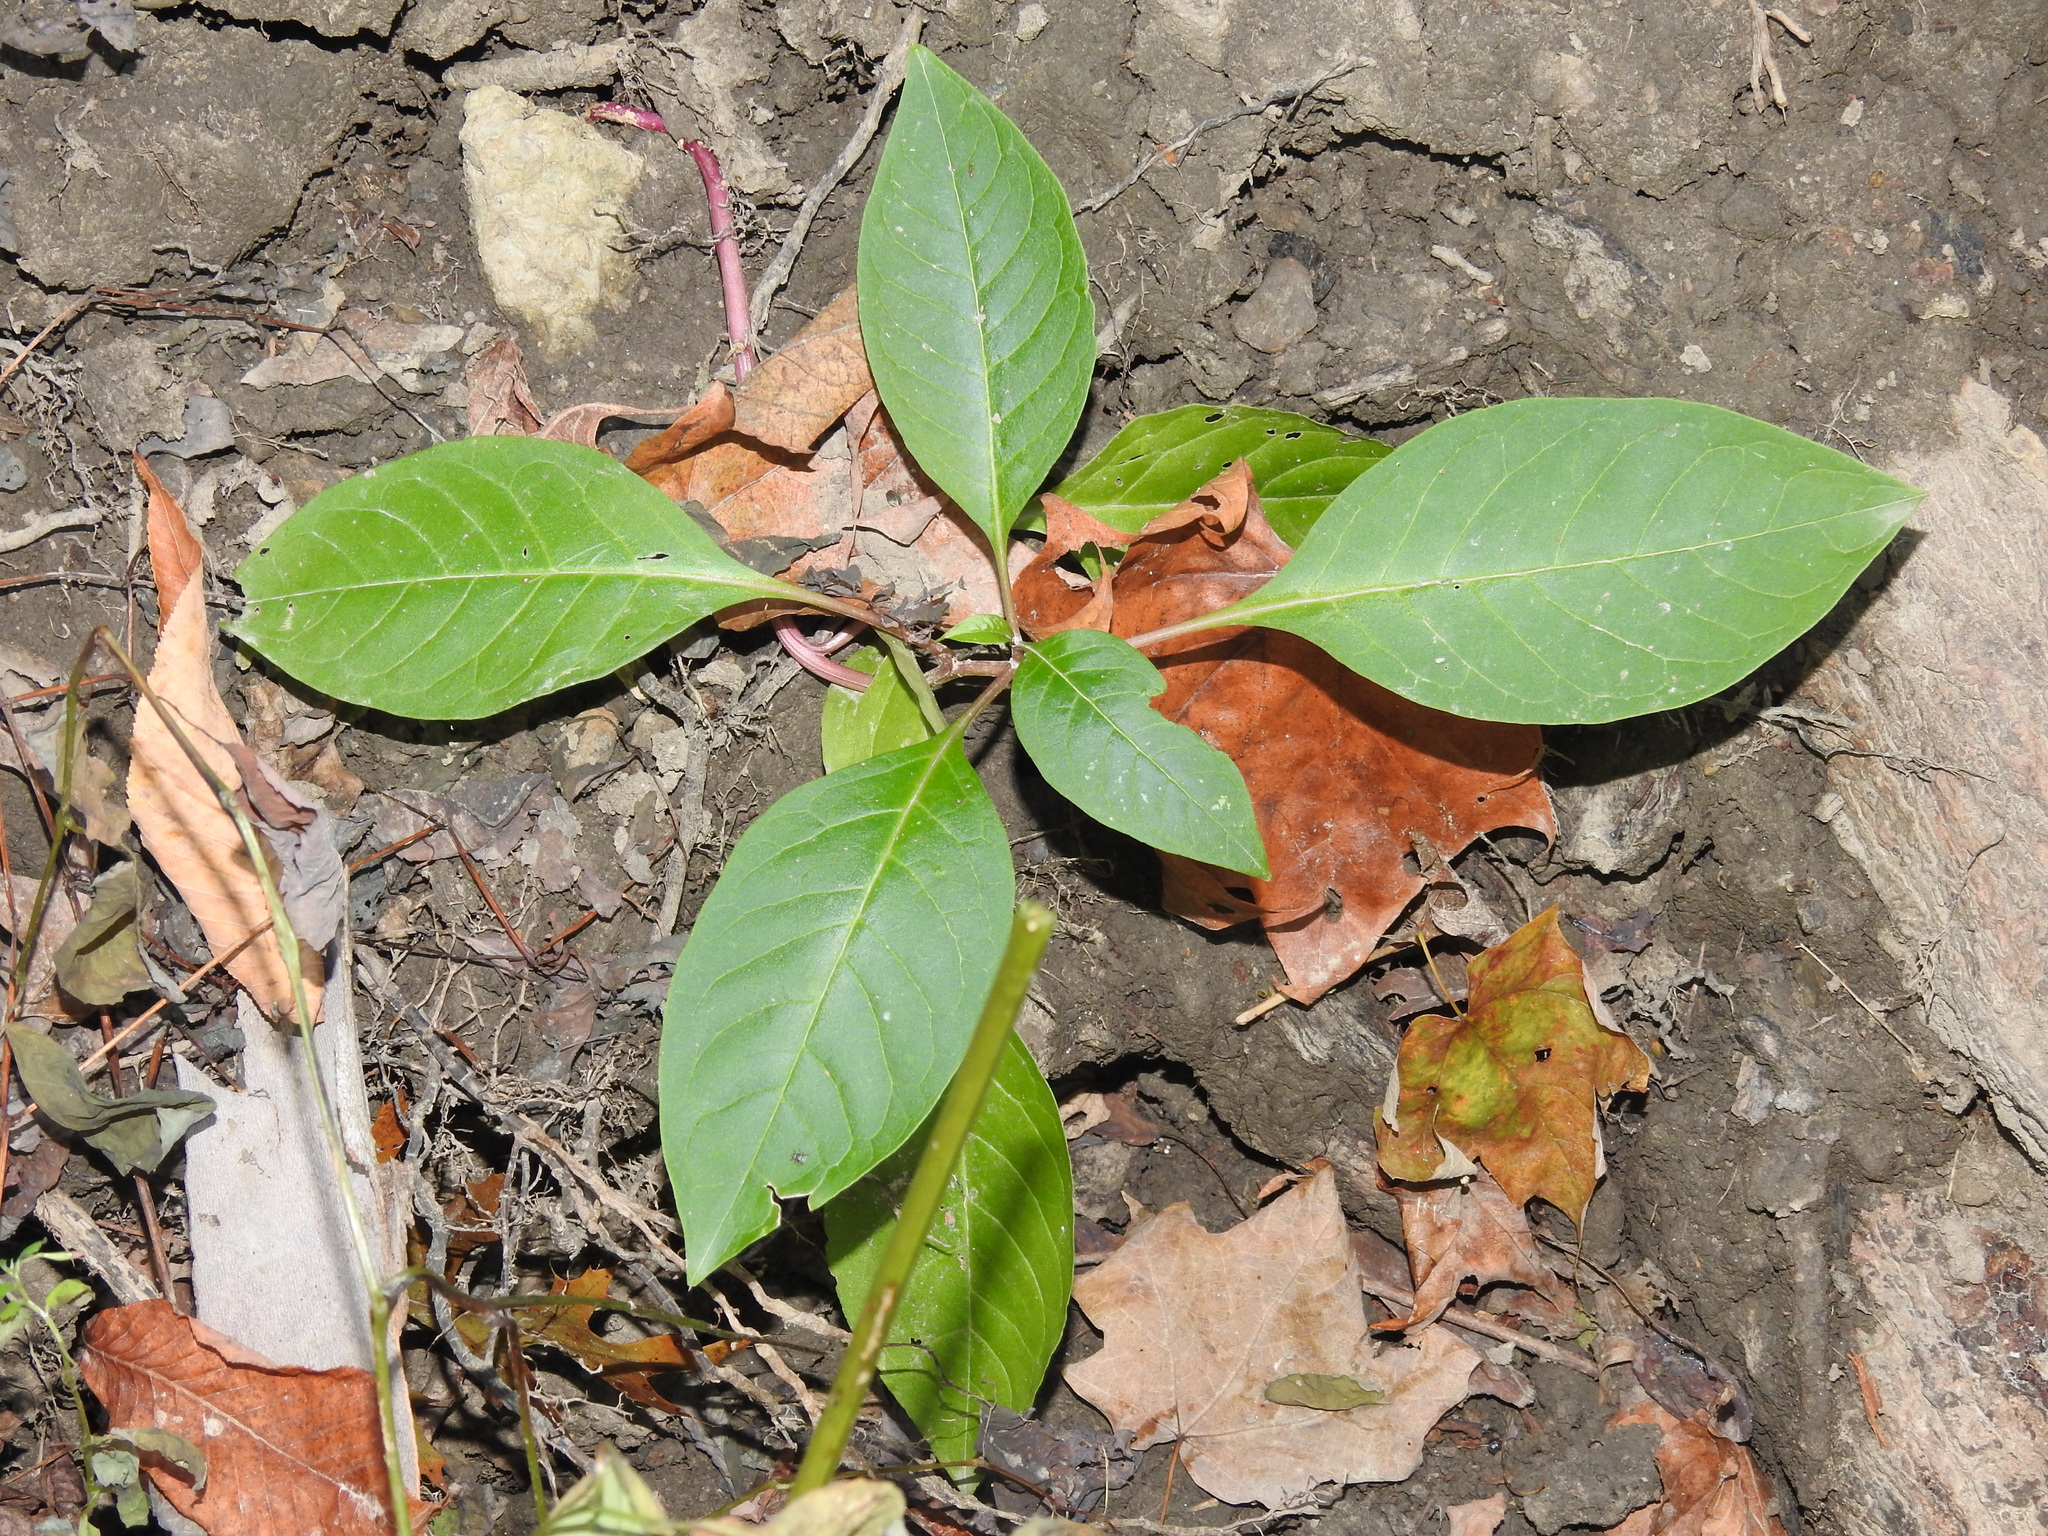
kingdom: Plantae
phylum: Tracheophyta
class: Magnoliopsida
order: Caryophyllales
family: Phytolaccaceae
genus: Phytolacca
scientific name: Phytolacca americana
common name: American pokeweed
